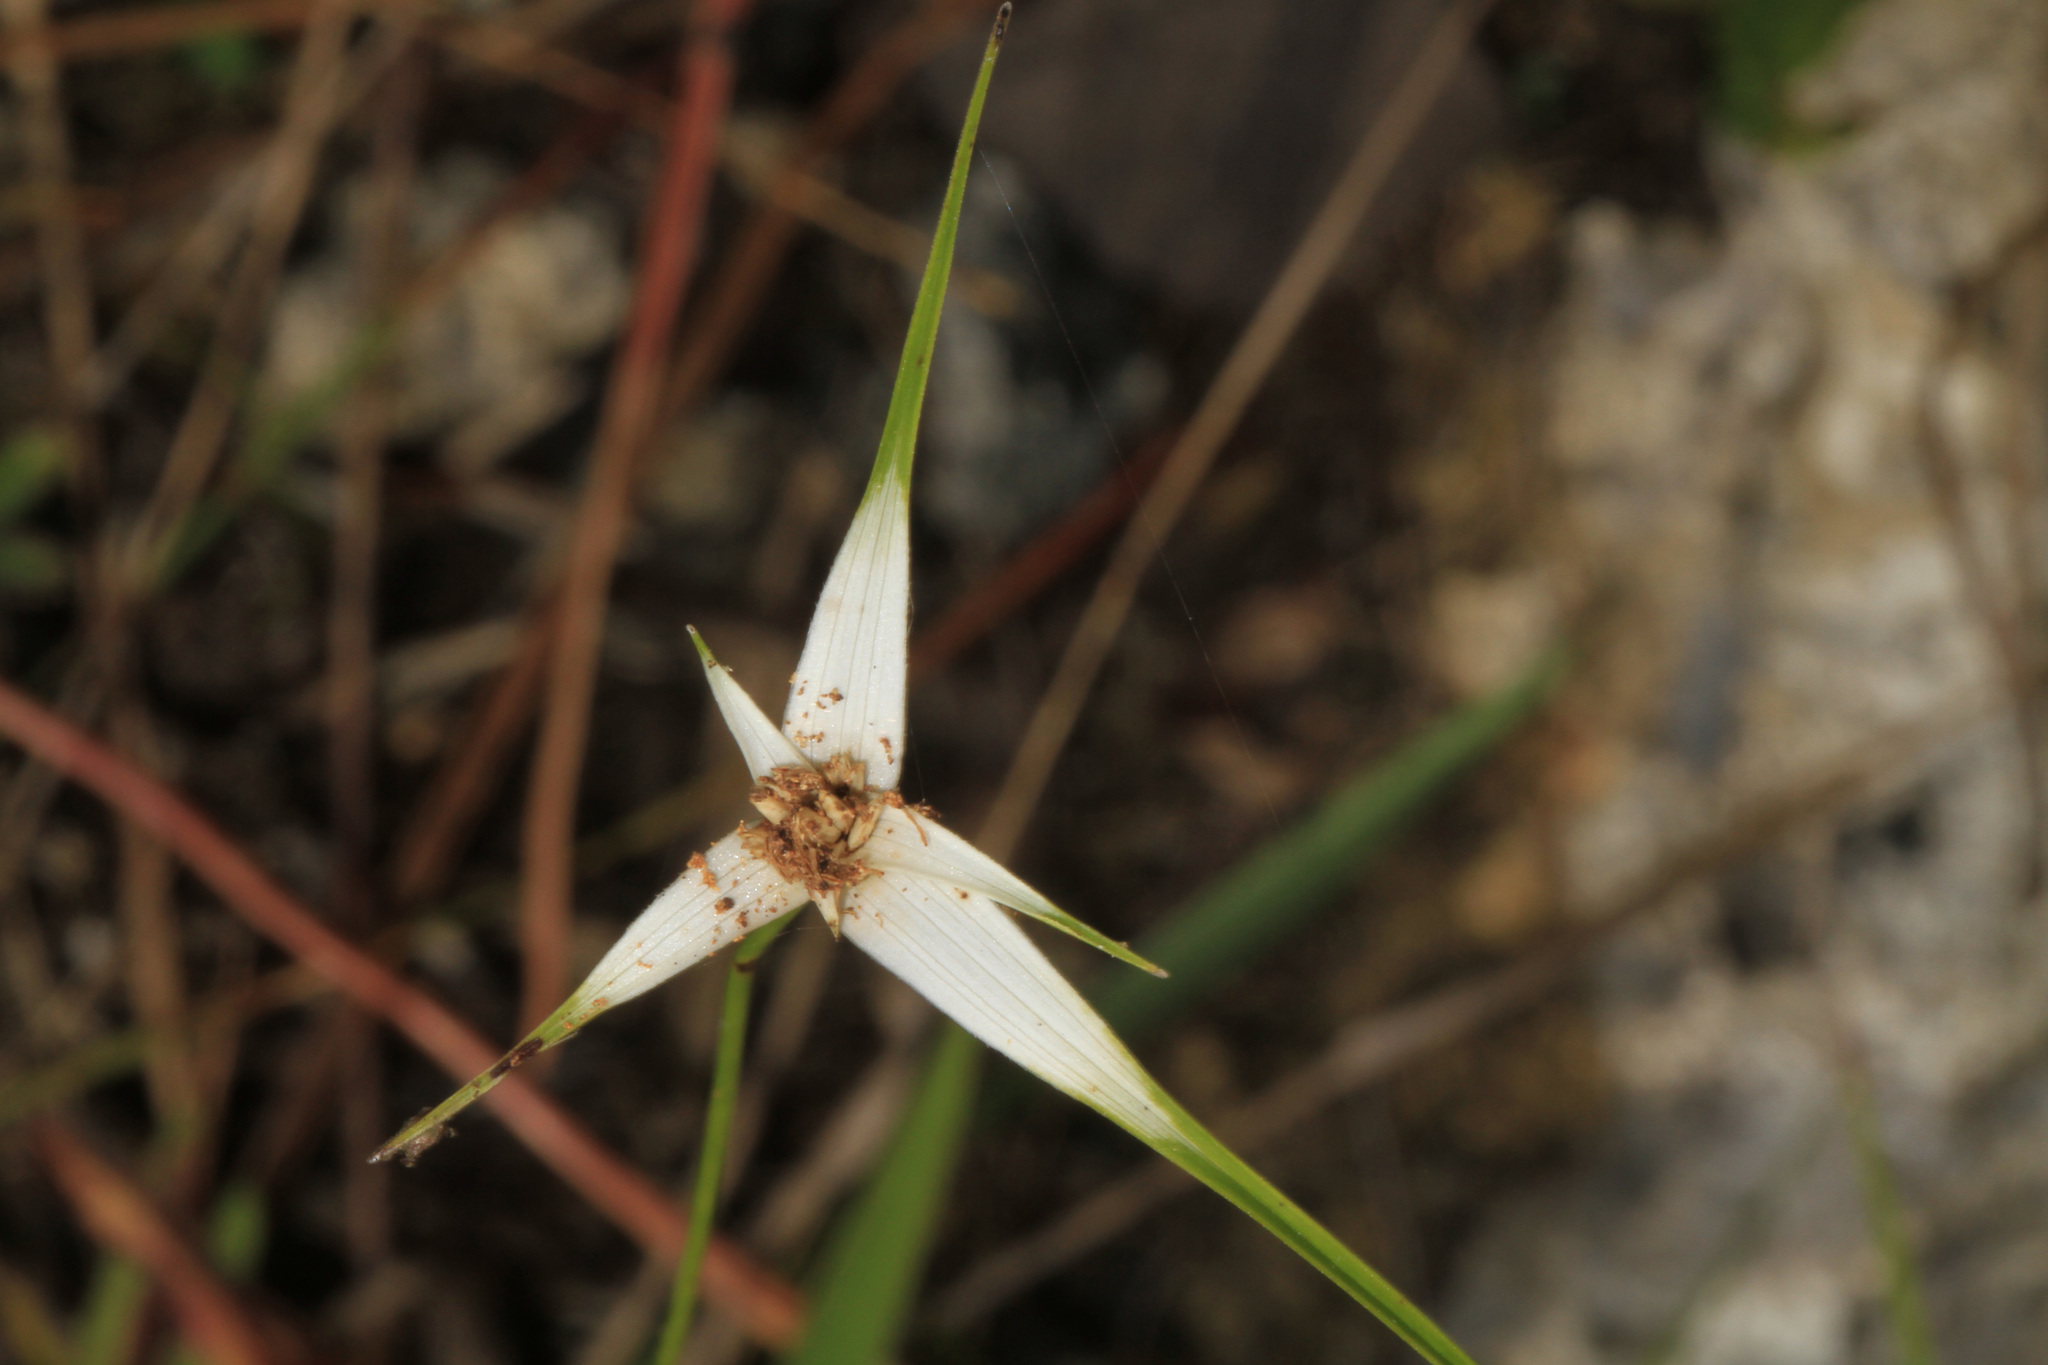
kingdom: Plantae
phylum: Tracheophyta
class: Liliopsida
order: Poales
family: Cyperaceae
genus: Rhynchospora
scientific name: Rhynchospora colorata
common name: Star sedge
